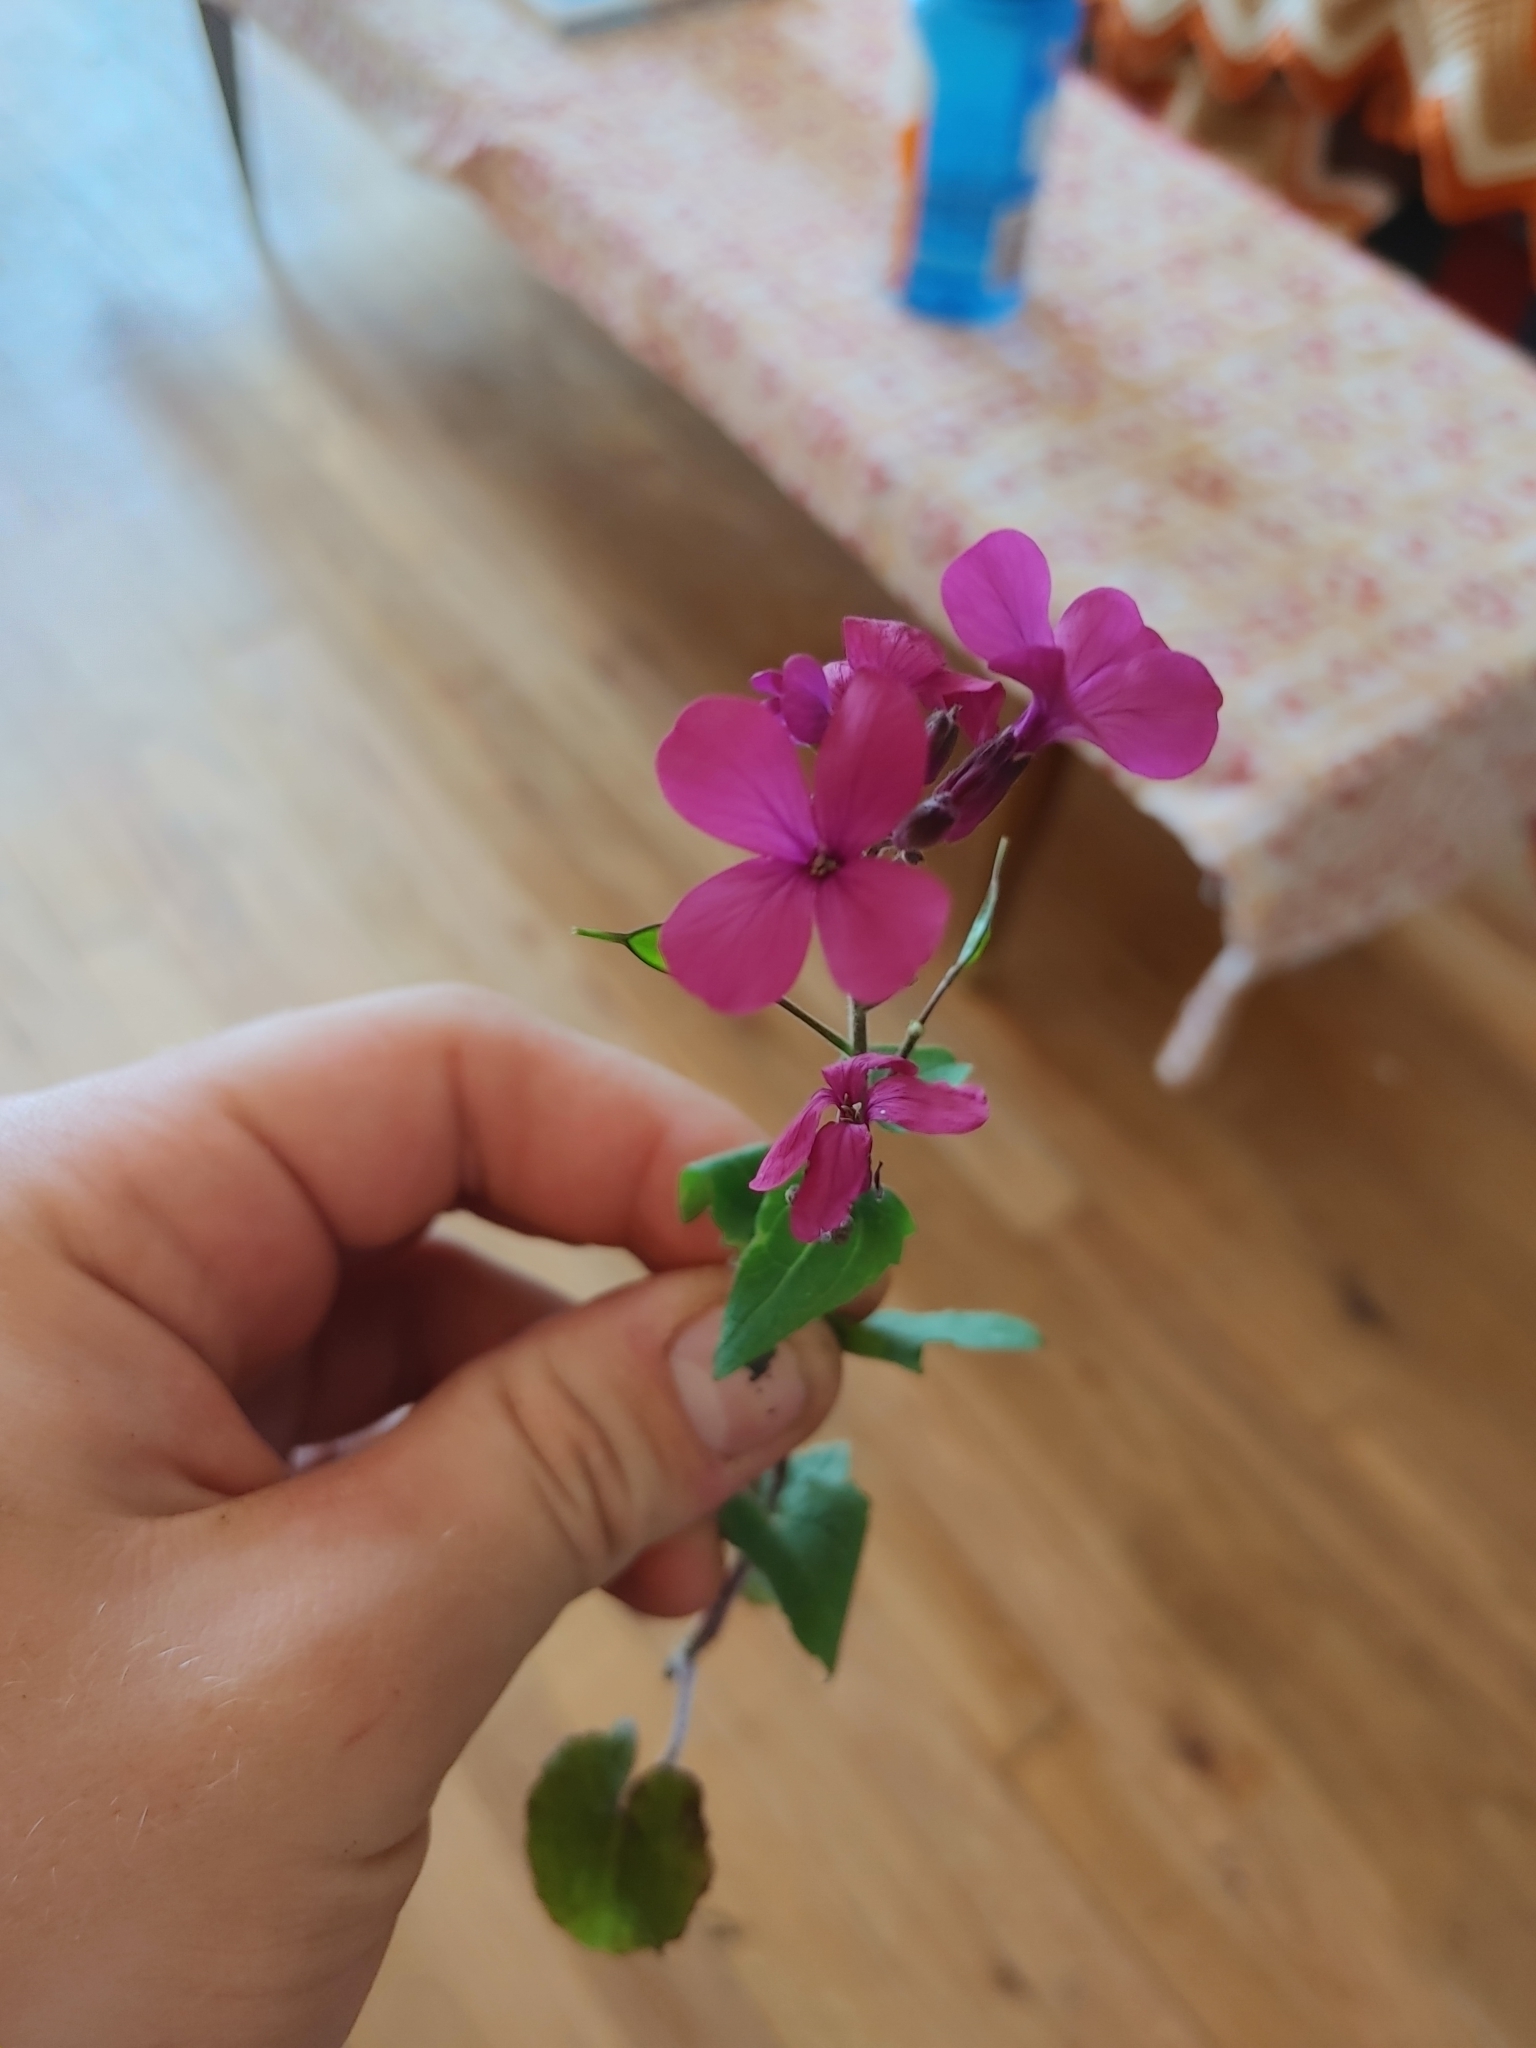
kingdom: Plantae
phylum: Tracheophyta
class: Magnoliopsida
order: Brassicales
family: Brassicaceae
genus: Lunaria
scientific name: Lunaria annua
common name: Honesty
